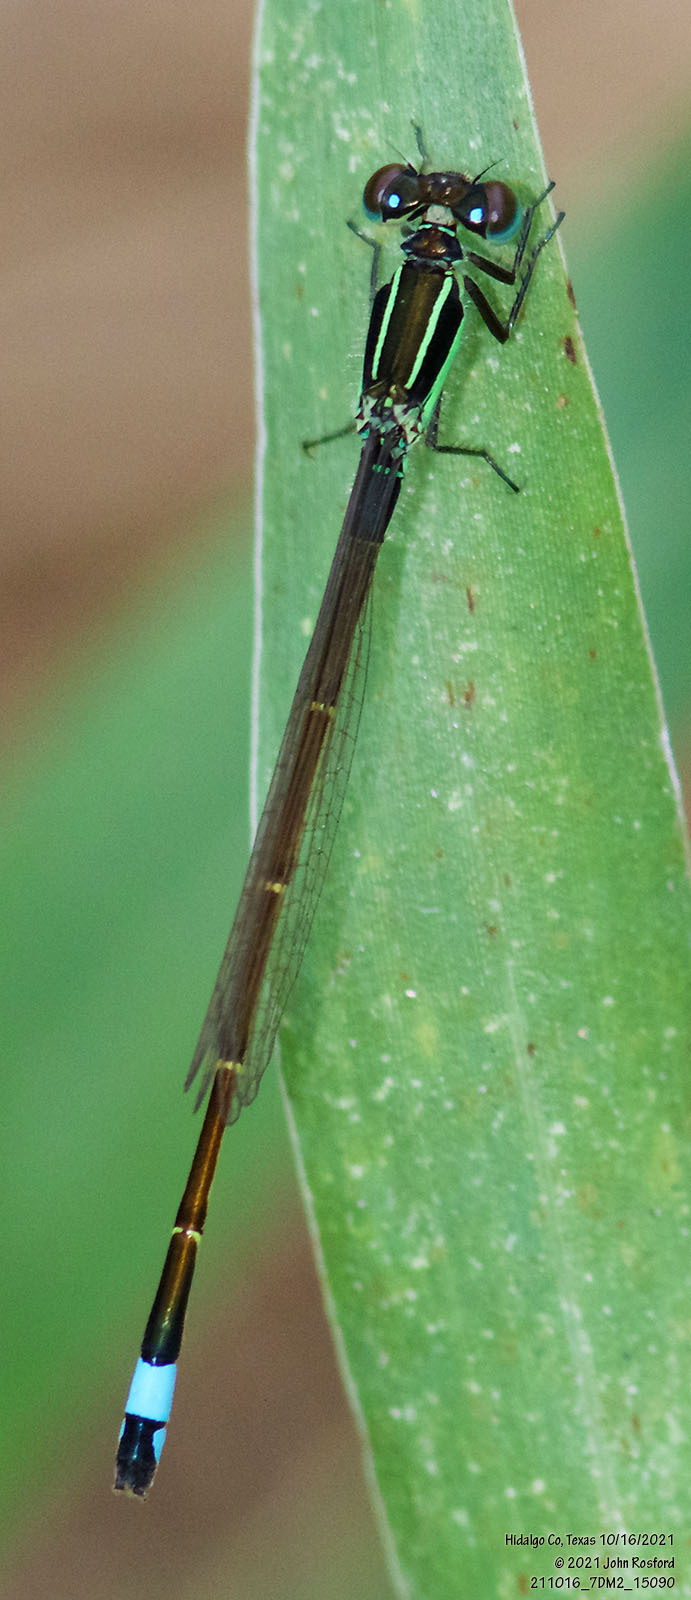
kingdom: Animalia
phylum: Arthropoda
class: Insecta
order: Odonata
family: Coenagrionidae
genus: Ischnura
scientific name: Ischnura ramburii
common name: Rambur's forktail
